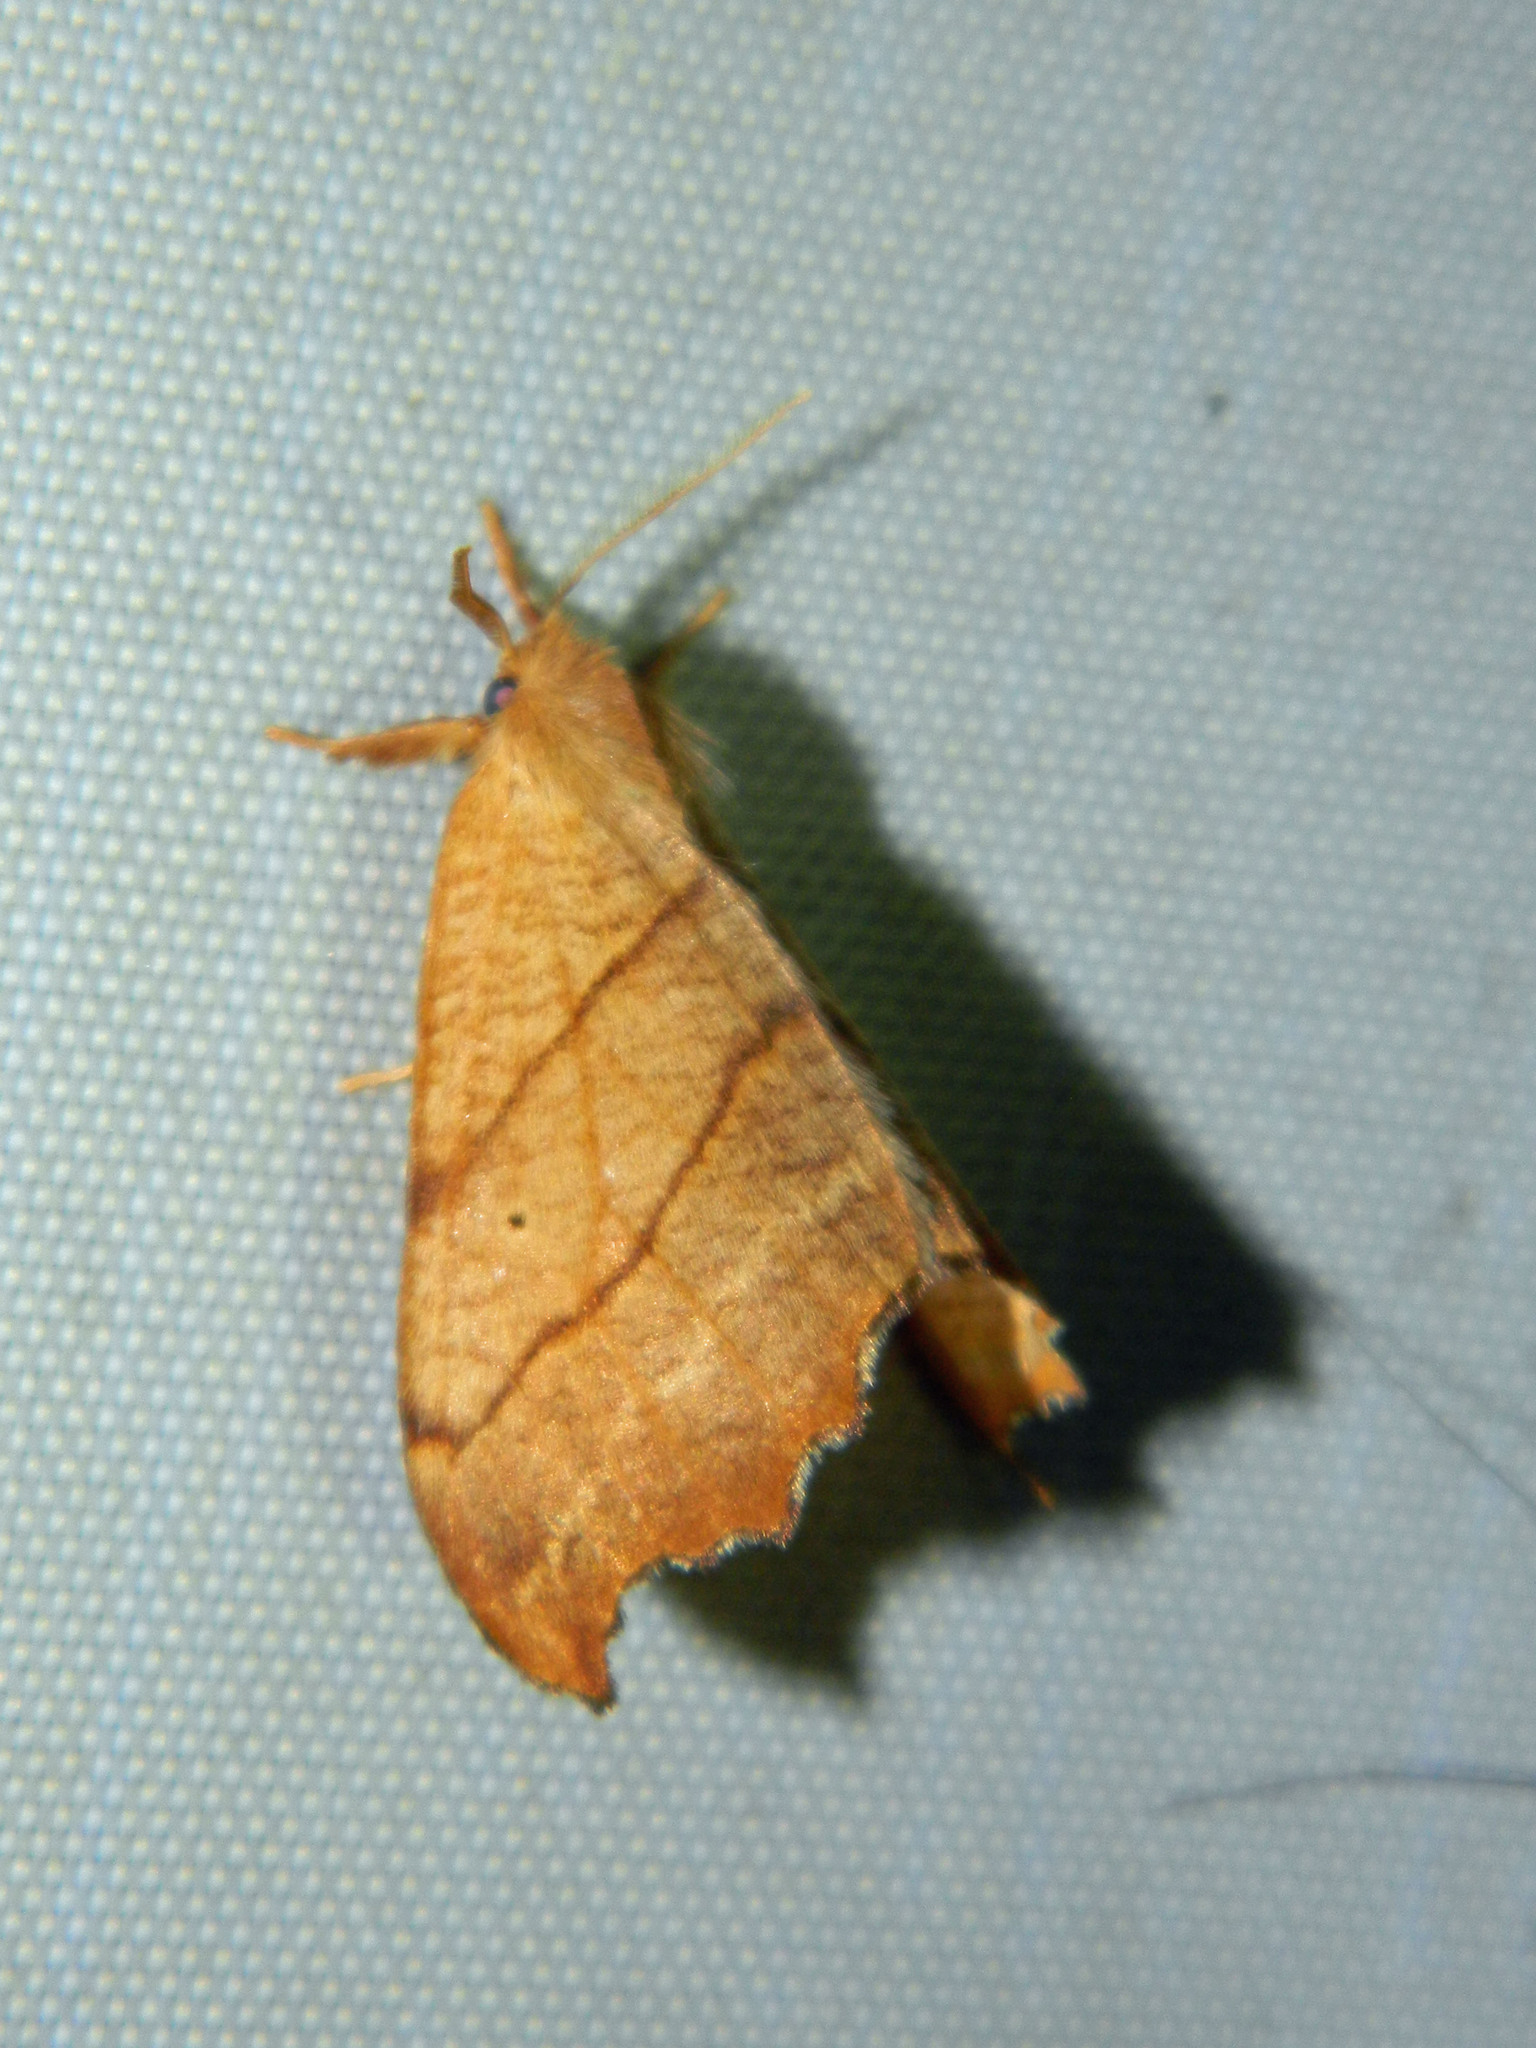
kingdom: Animalia
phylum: Arthropoda
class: Insecta
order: Lepidoptera
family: Drepanidae
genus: Falcaria
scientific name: Falcaria bilineata
